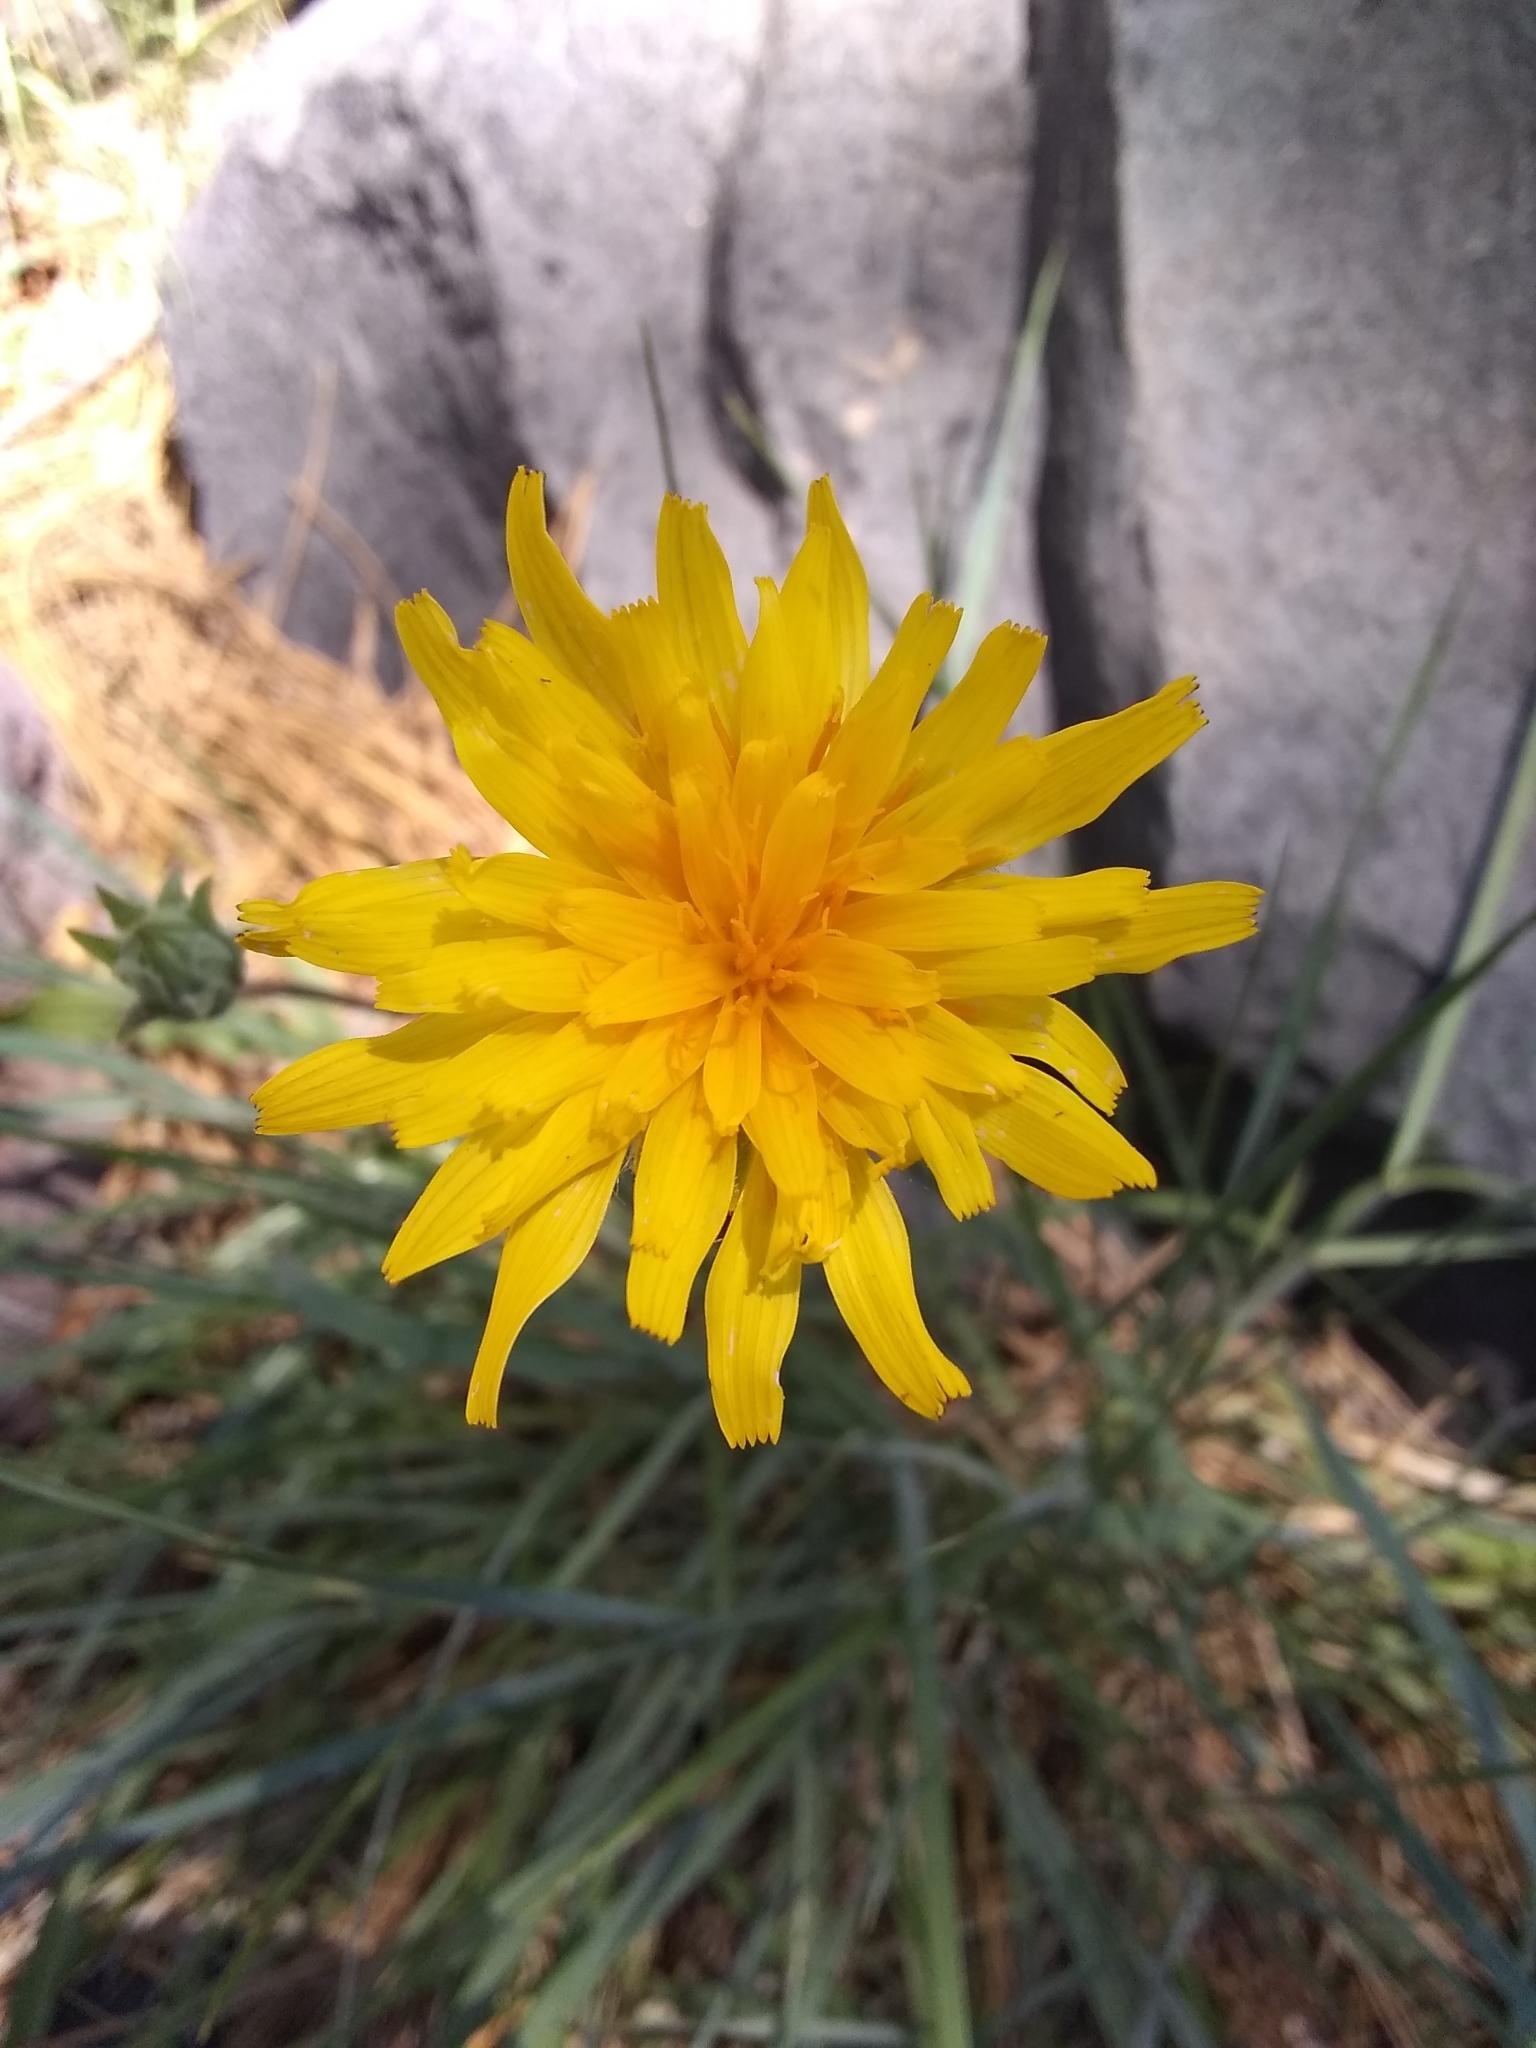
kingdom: Plantae
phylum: Tracheophyta
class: Magnoliopsida
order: Asterales
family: Asteraceae
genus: Agoseris
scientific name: Agoseris glauca
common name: Prairie agoseris
